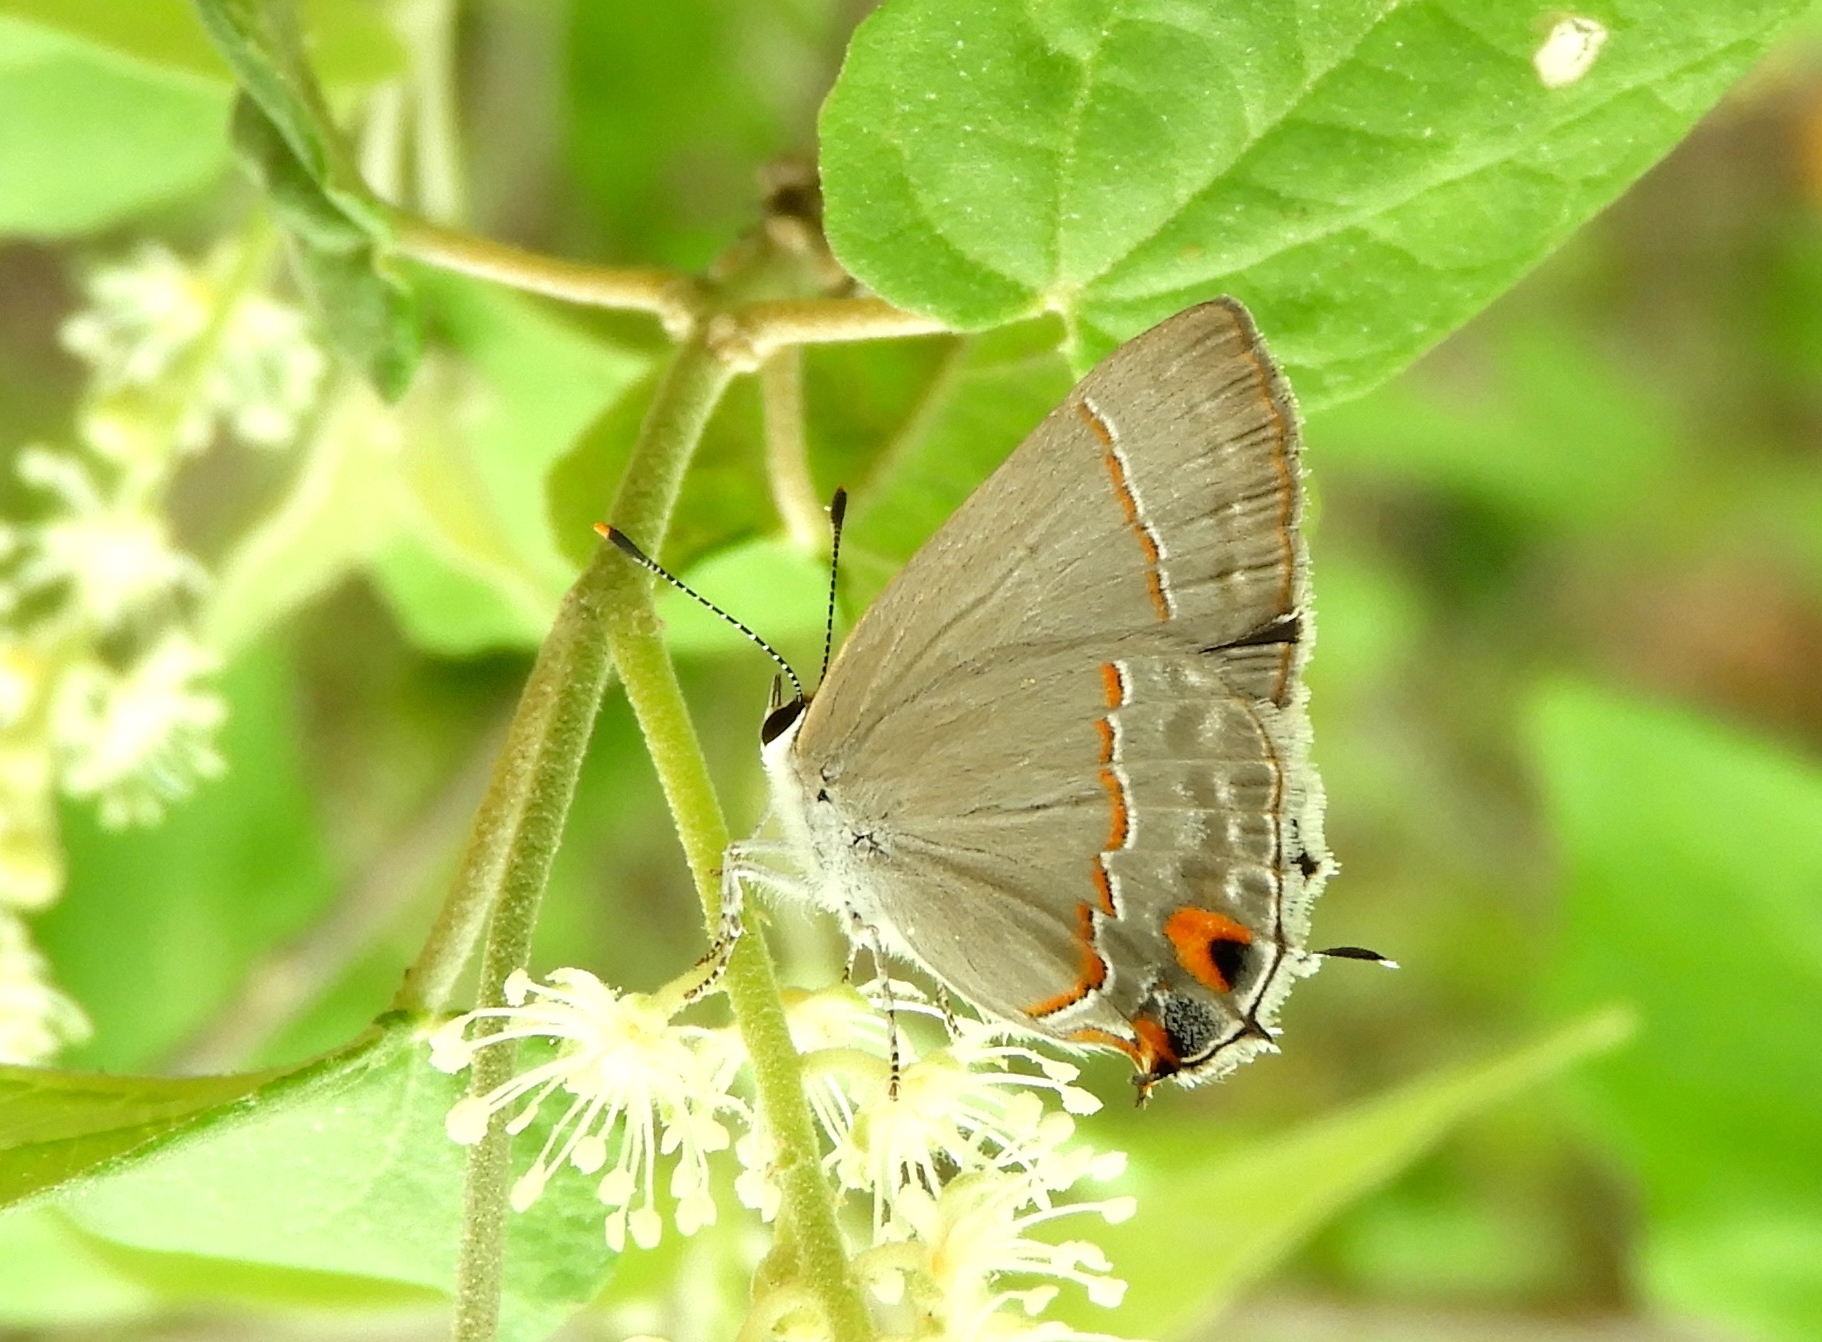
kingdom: Animalia
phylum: Arthropoda
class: Insecta
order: Lepidoptera
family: Lycaenidae
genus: Thecla
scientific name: Thecla bebrycia
